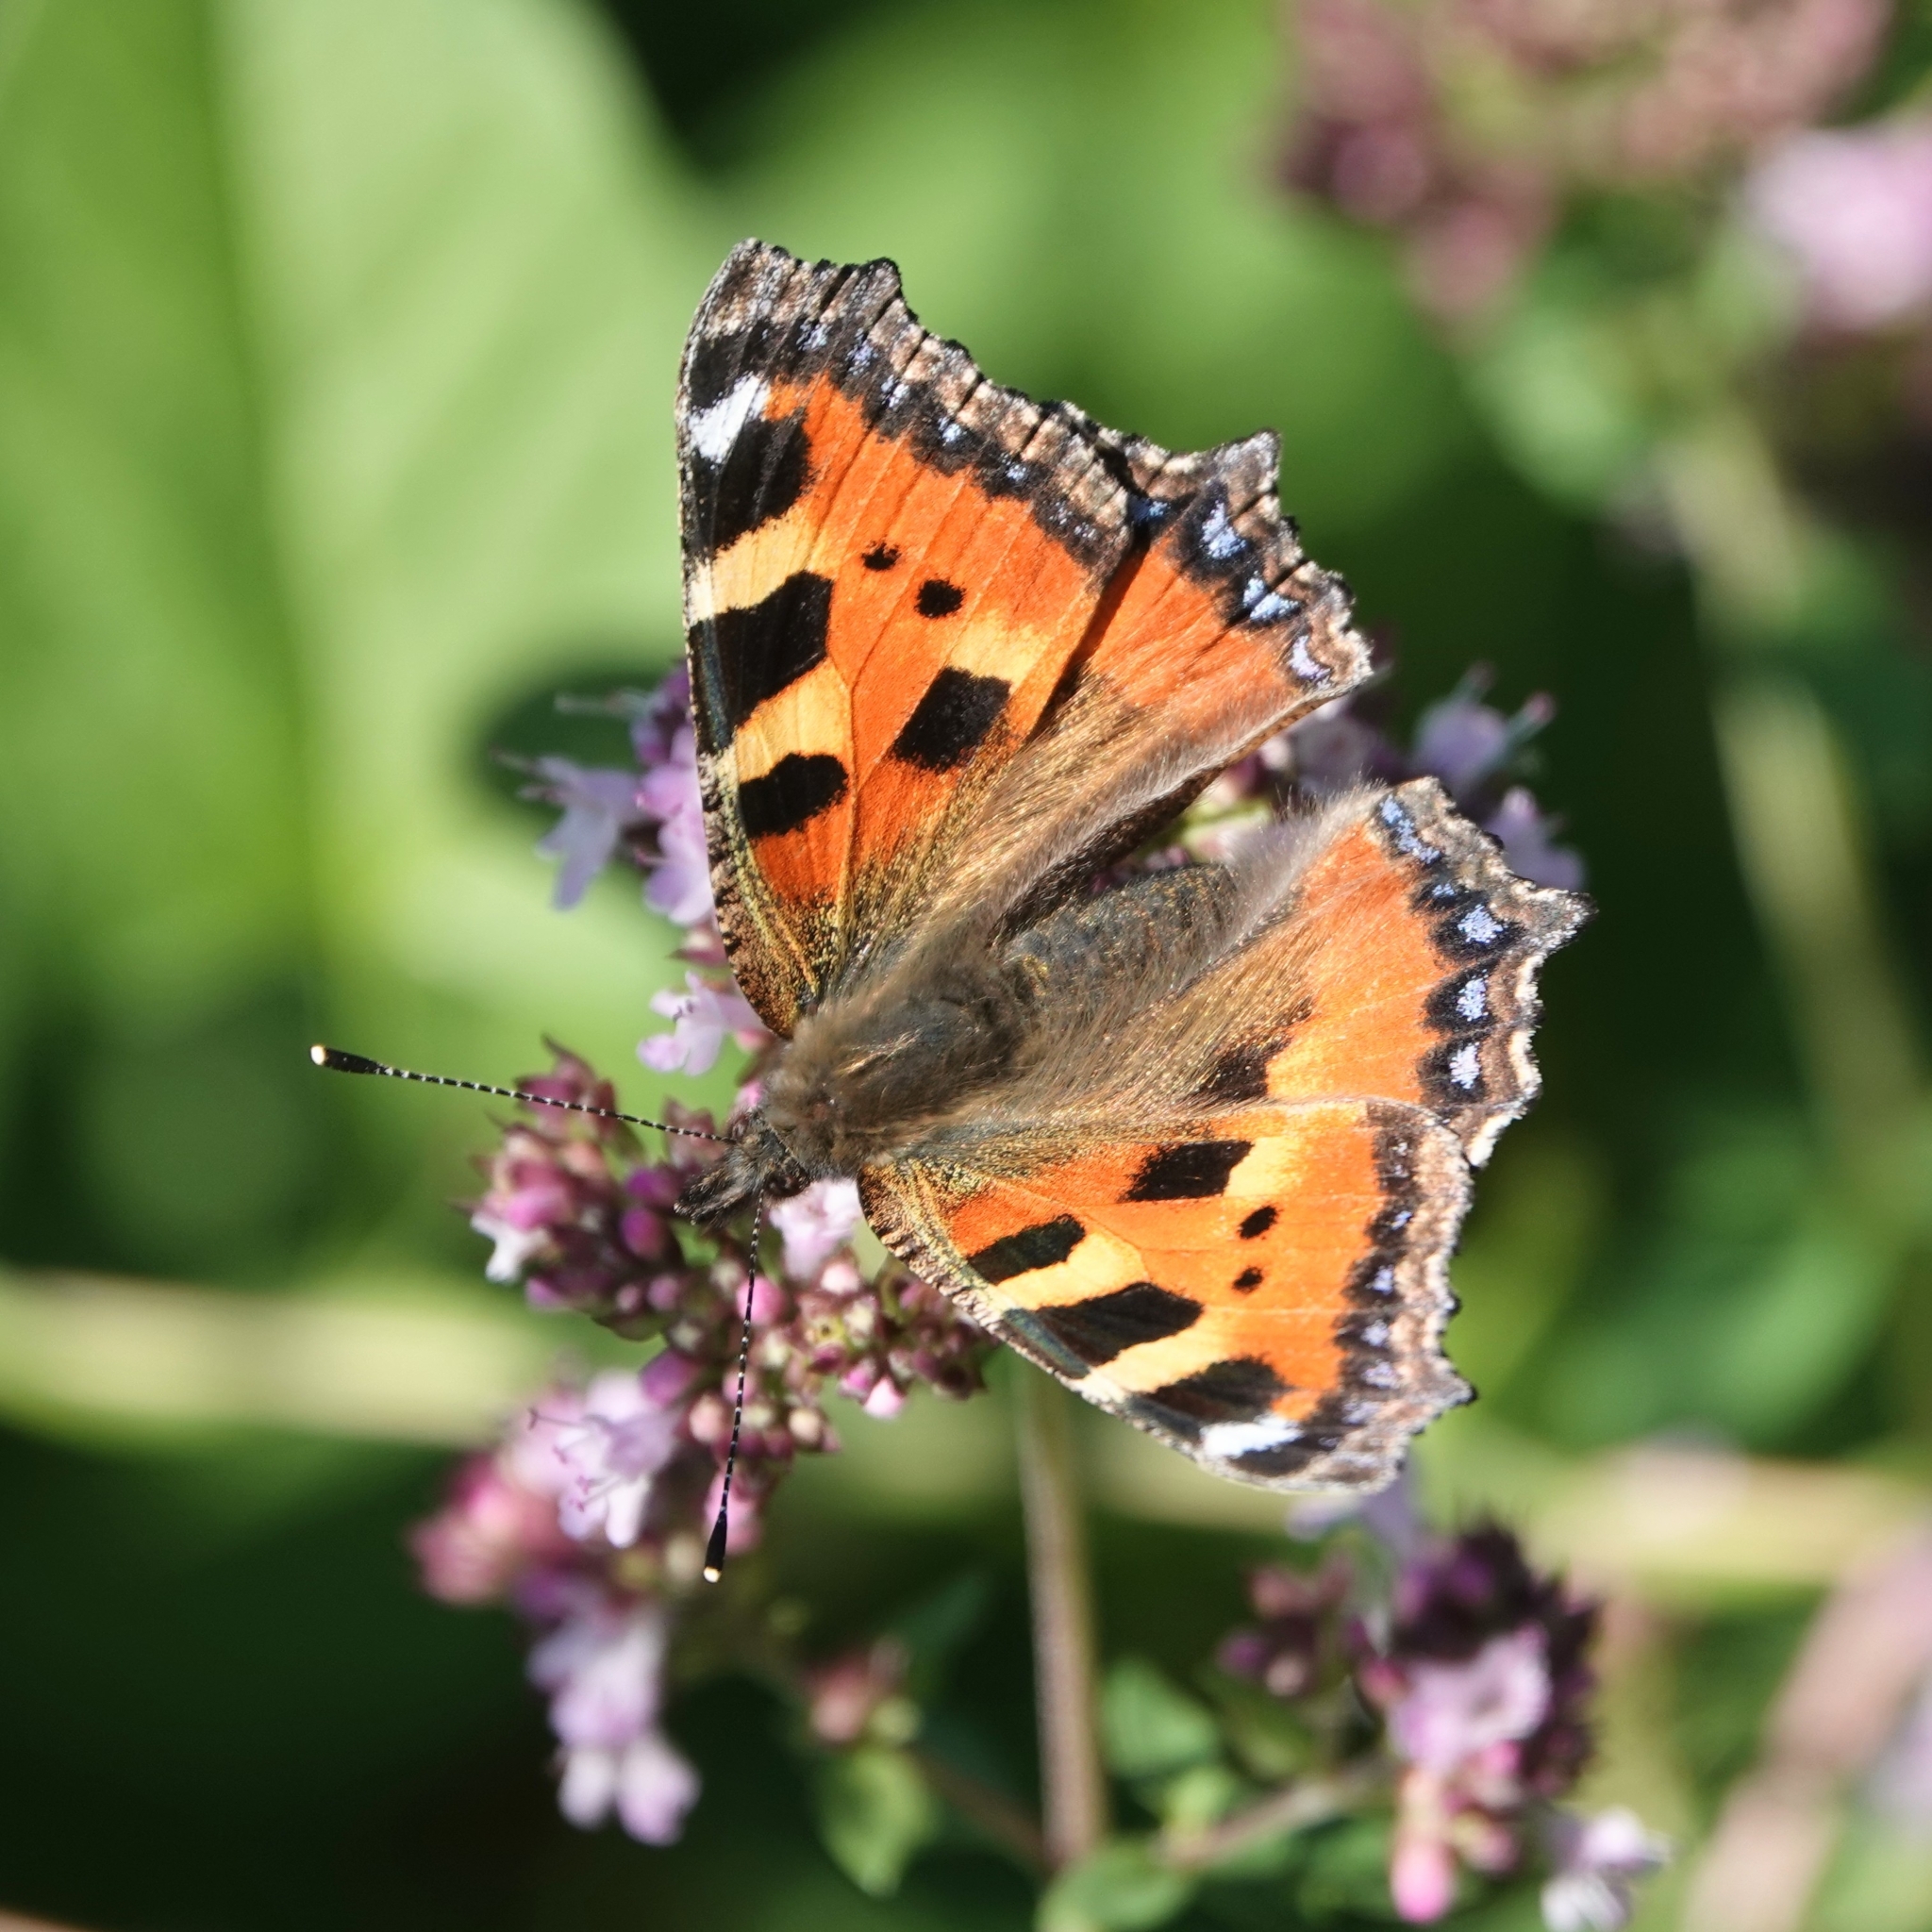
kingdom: Animalia
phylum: Arthropoda
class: Insecta
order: Lepidoptera
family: Nymphalidae
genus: Aglais
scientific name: Aglais urticae
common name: Small tortoiseshell
